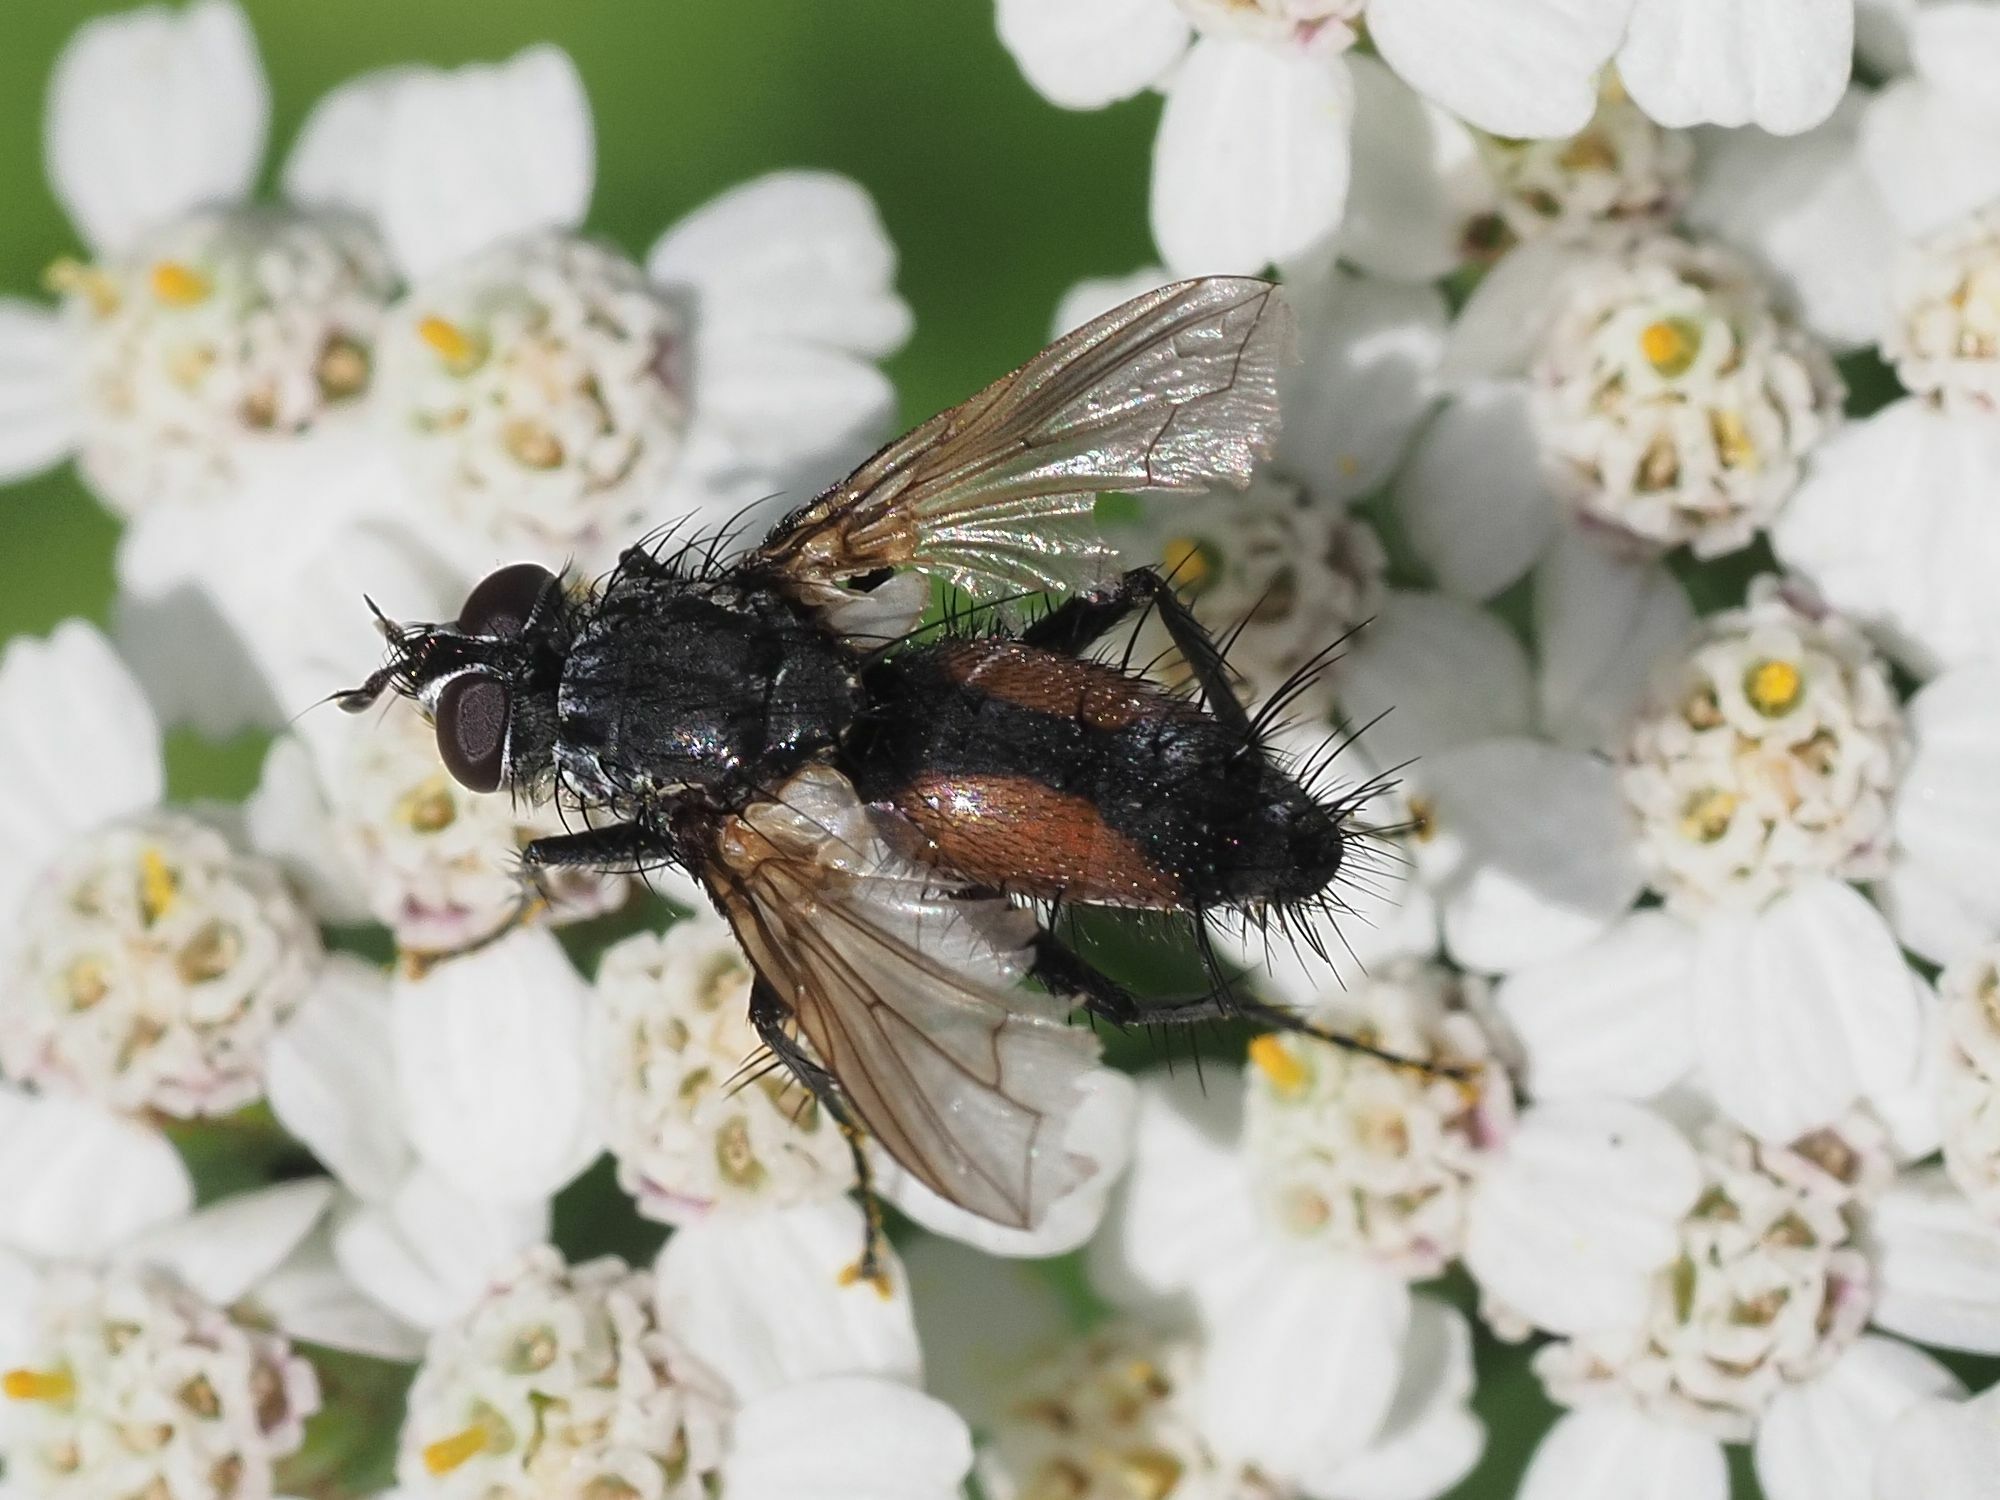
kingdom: Animalia
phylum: Arthropoda
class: Insecta
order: Diptera
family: Tachinidae
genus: Eriothrix
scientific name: Eriothrix rufomaculatus
